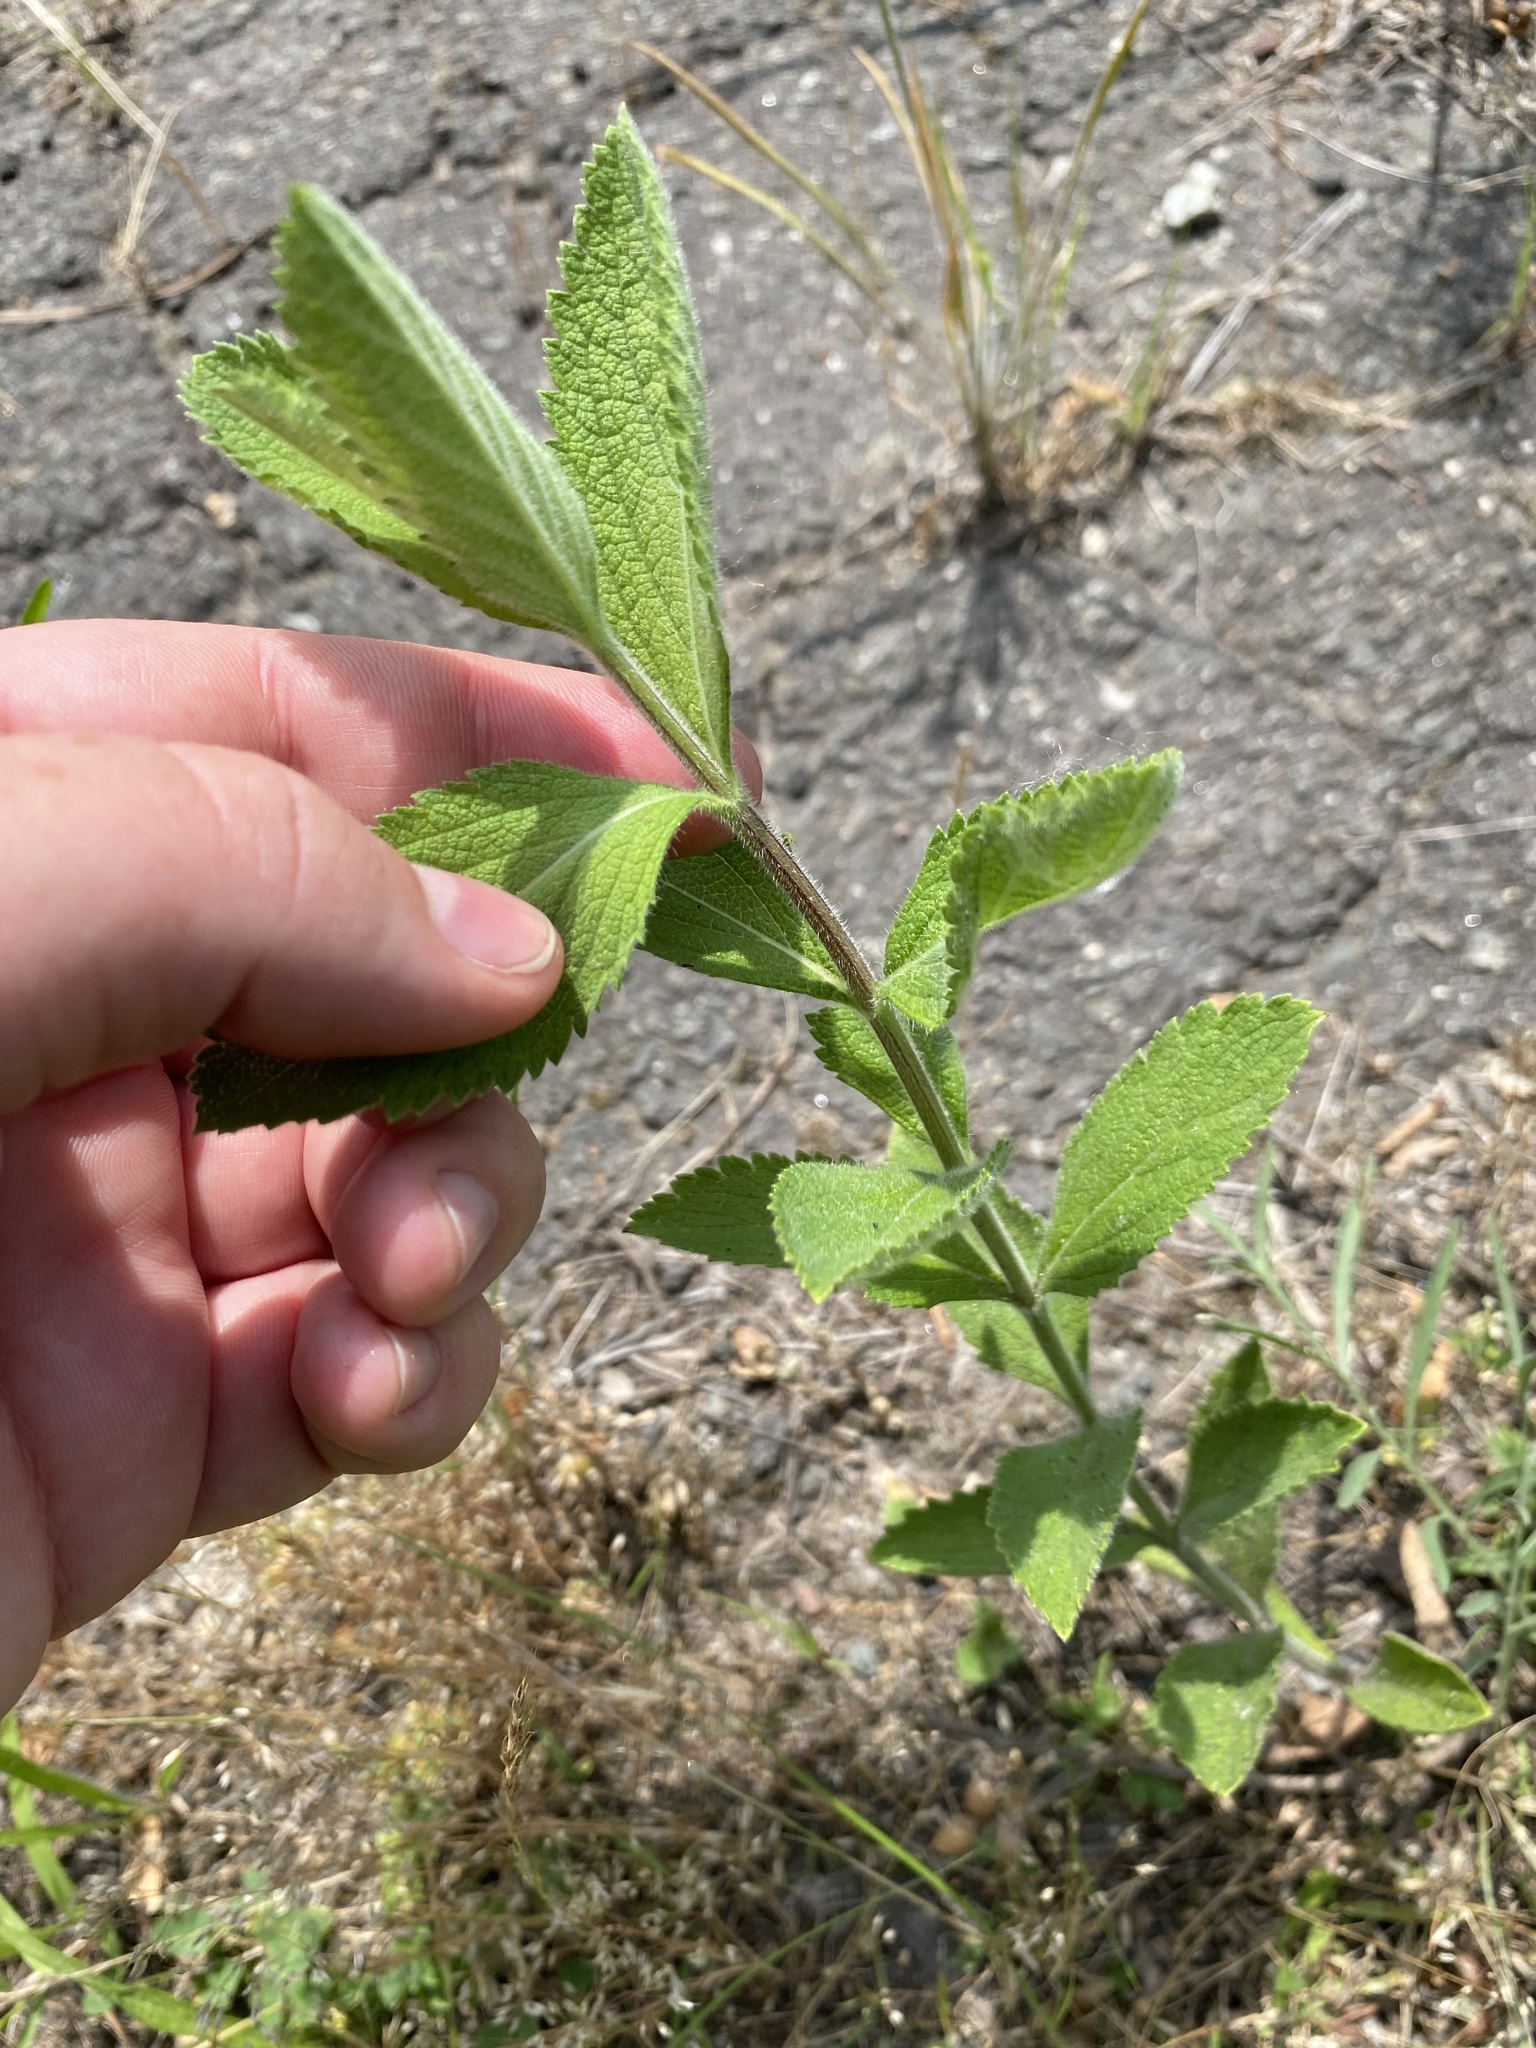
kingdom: Plantae
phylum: Tracheophyta
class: Magnoliopsida
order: Lamiales
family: Verbenaceae
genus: Verbena
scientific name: Verbena stricta
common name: Hoary vervain
